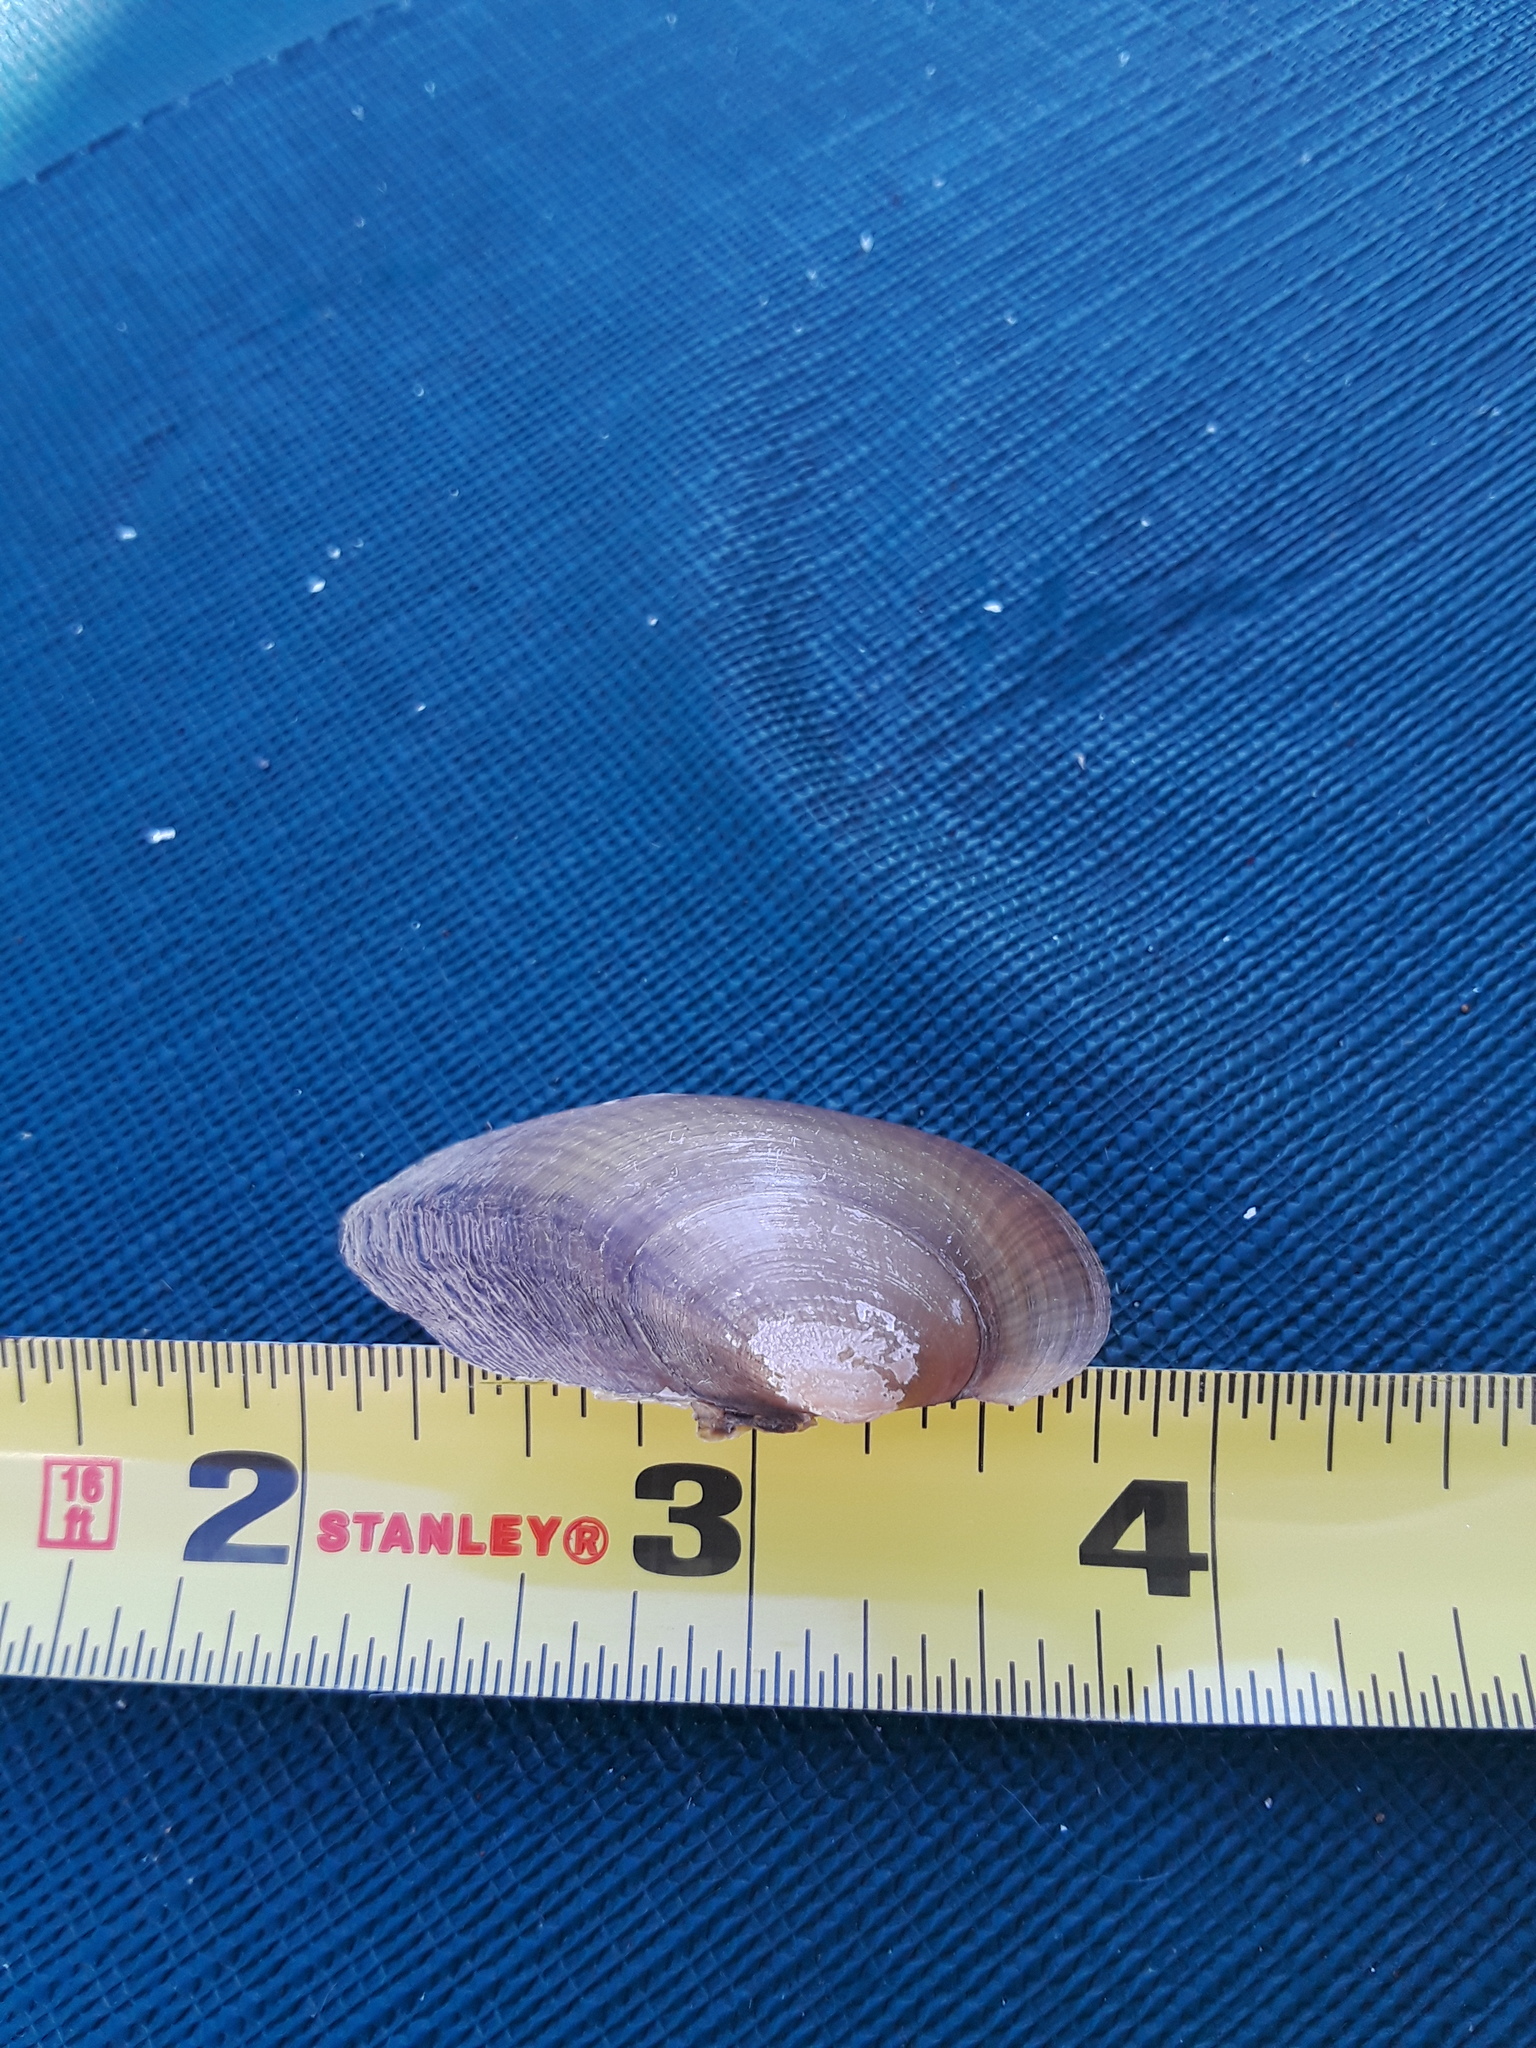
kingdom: Animalia
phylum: Mollusca
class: Bivalvia
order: Unionida
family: Unionidae
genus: Atlanticoncha
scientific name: Atlanticoncha ochracea
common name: Tidewater mucket
